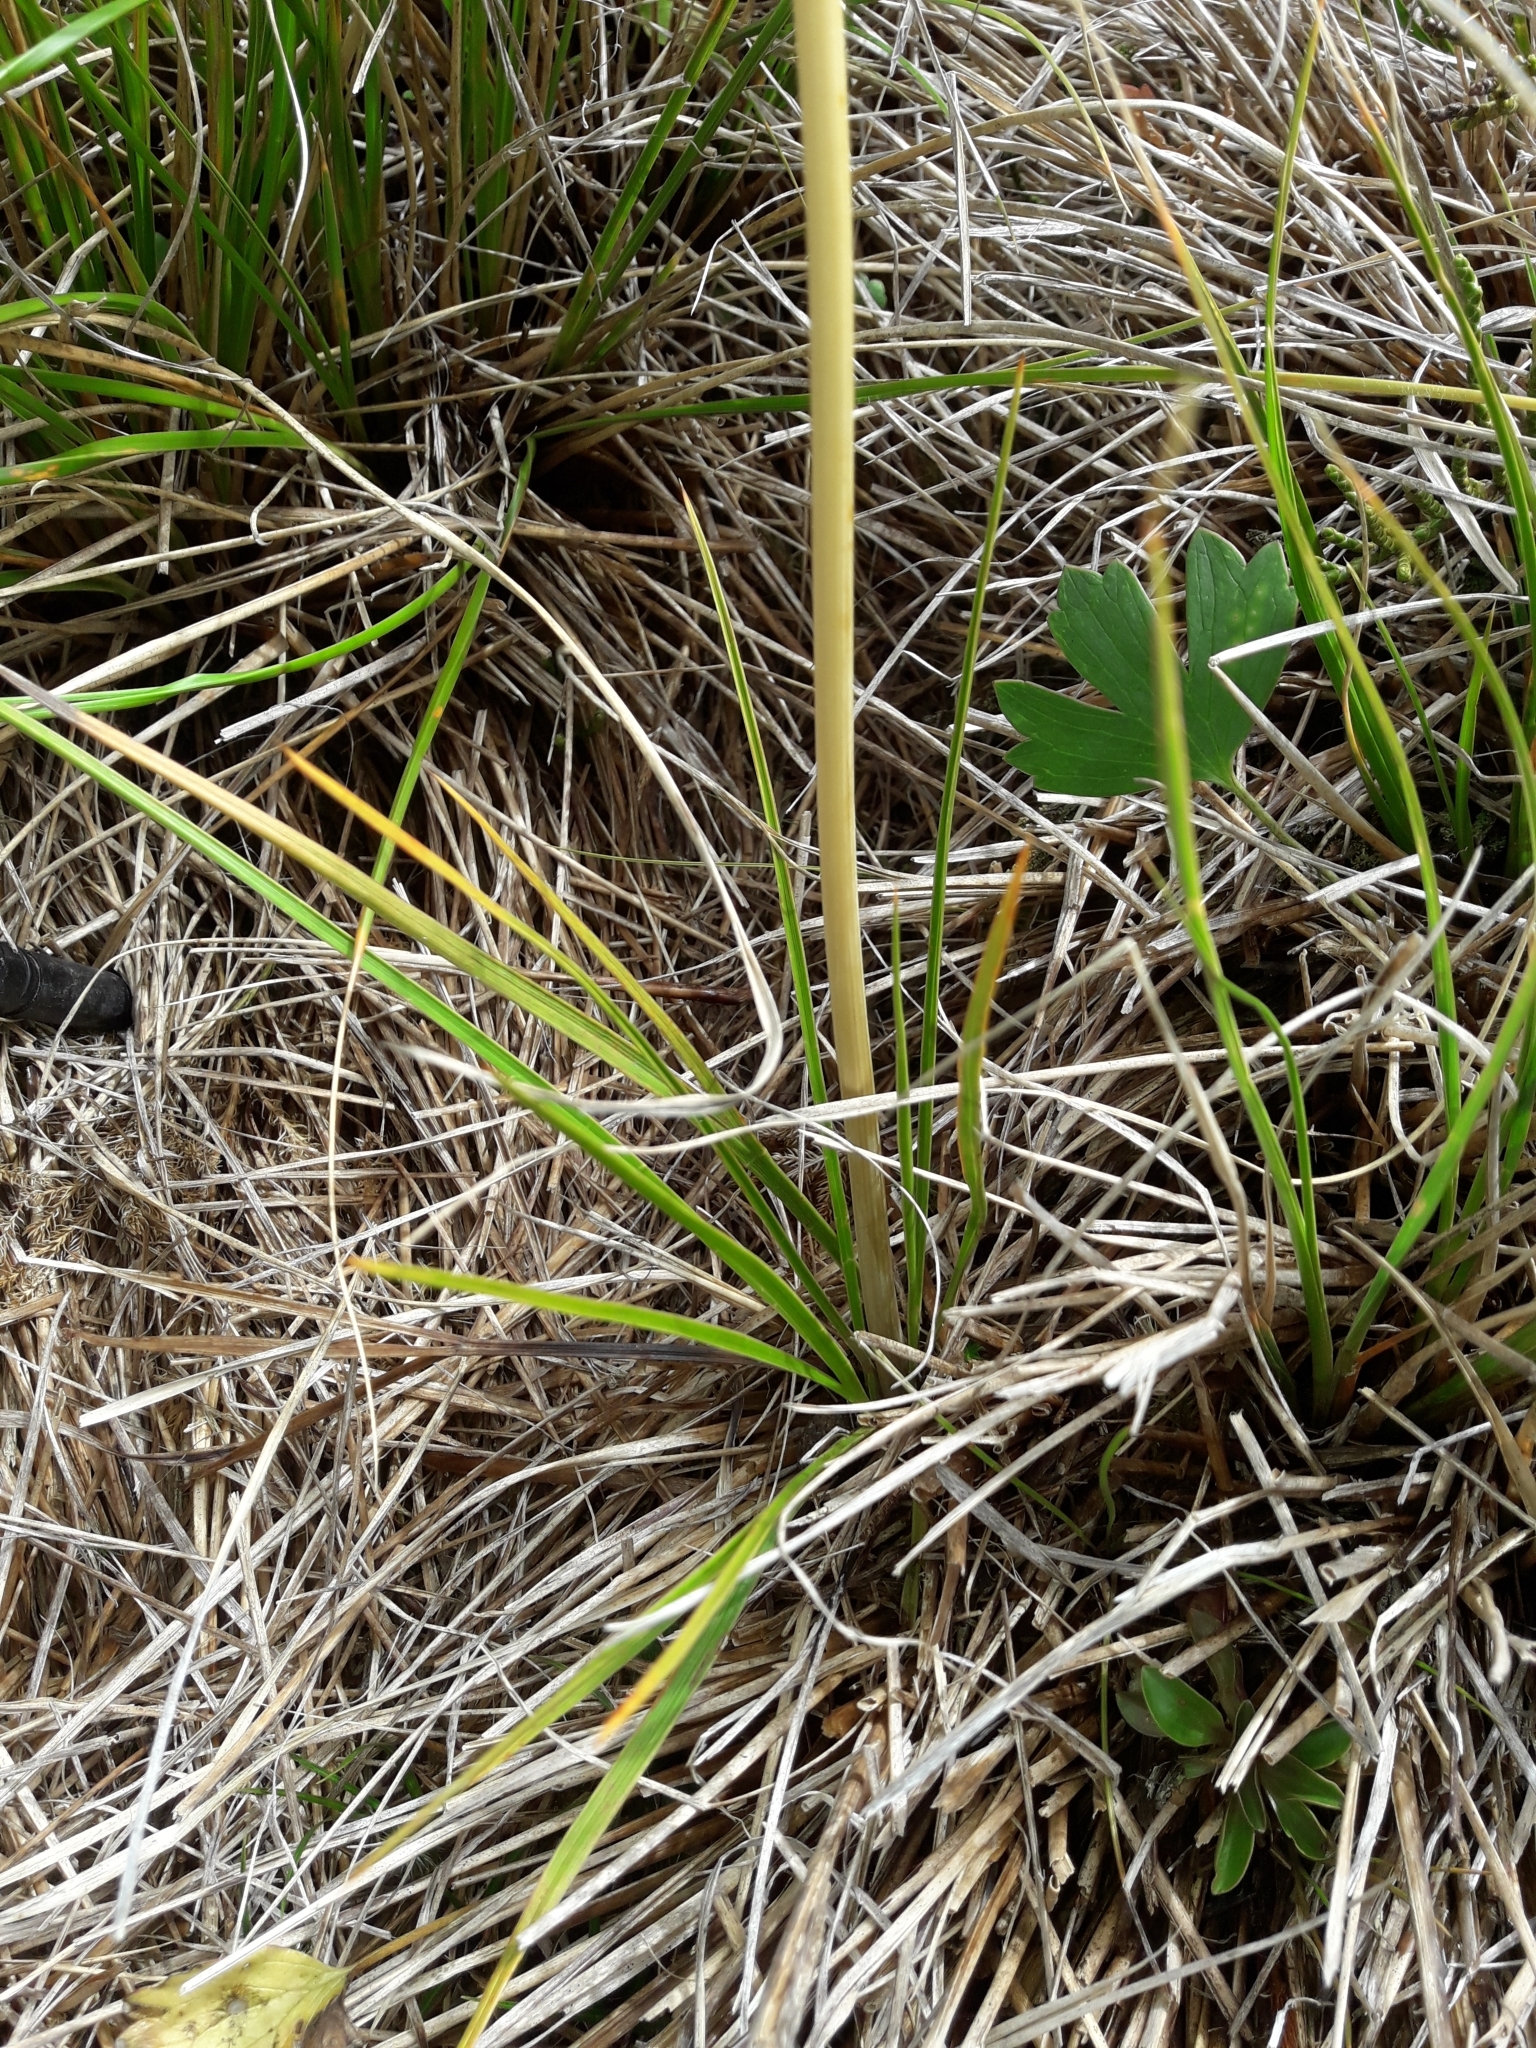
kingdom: Plantae
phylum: Tracheophyta
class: Magnoliopsida
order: Apiales
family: Apiaceae
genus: Aciphylla
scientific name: Aciphylla anomala
